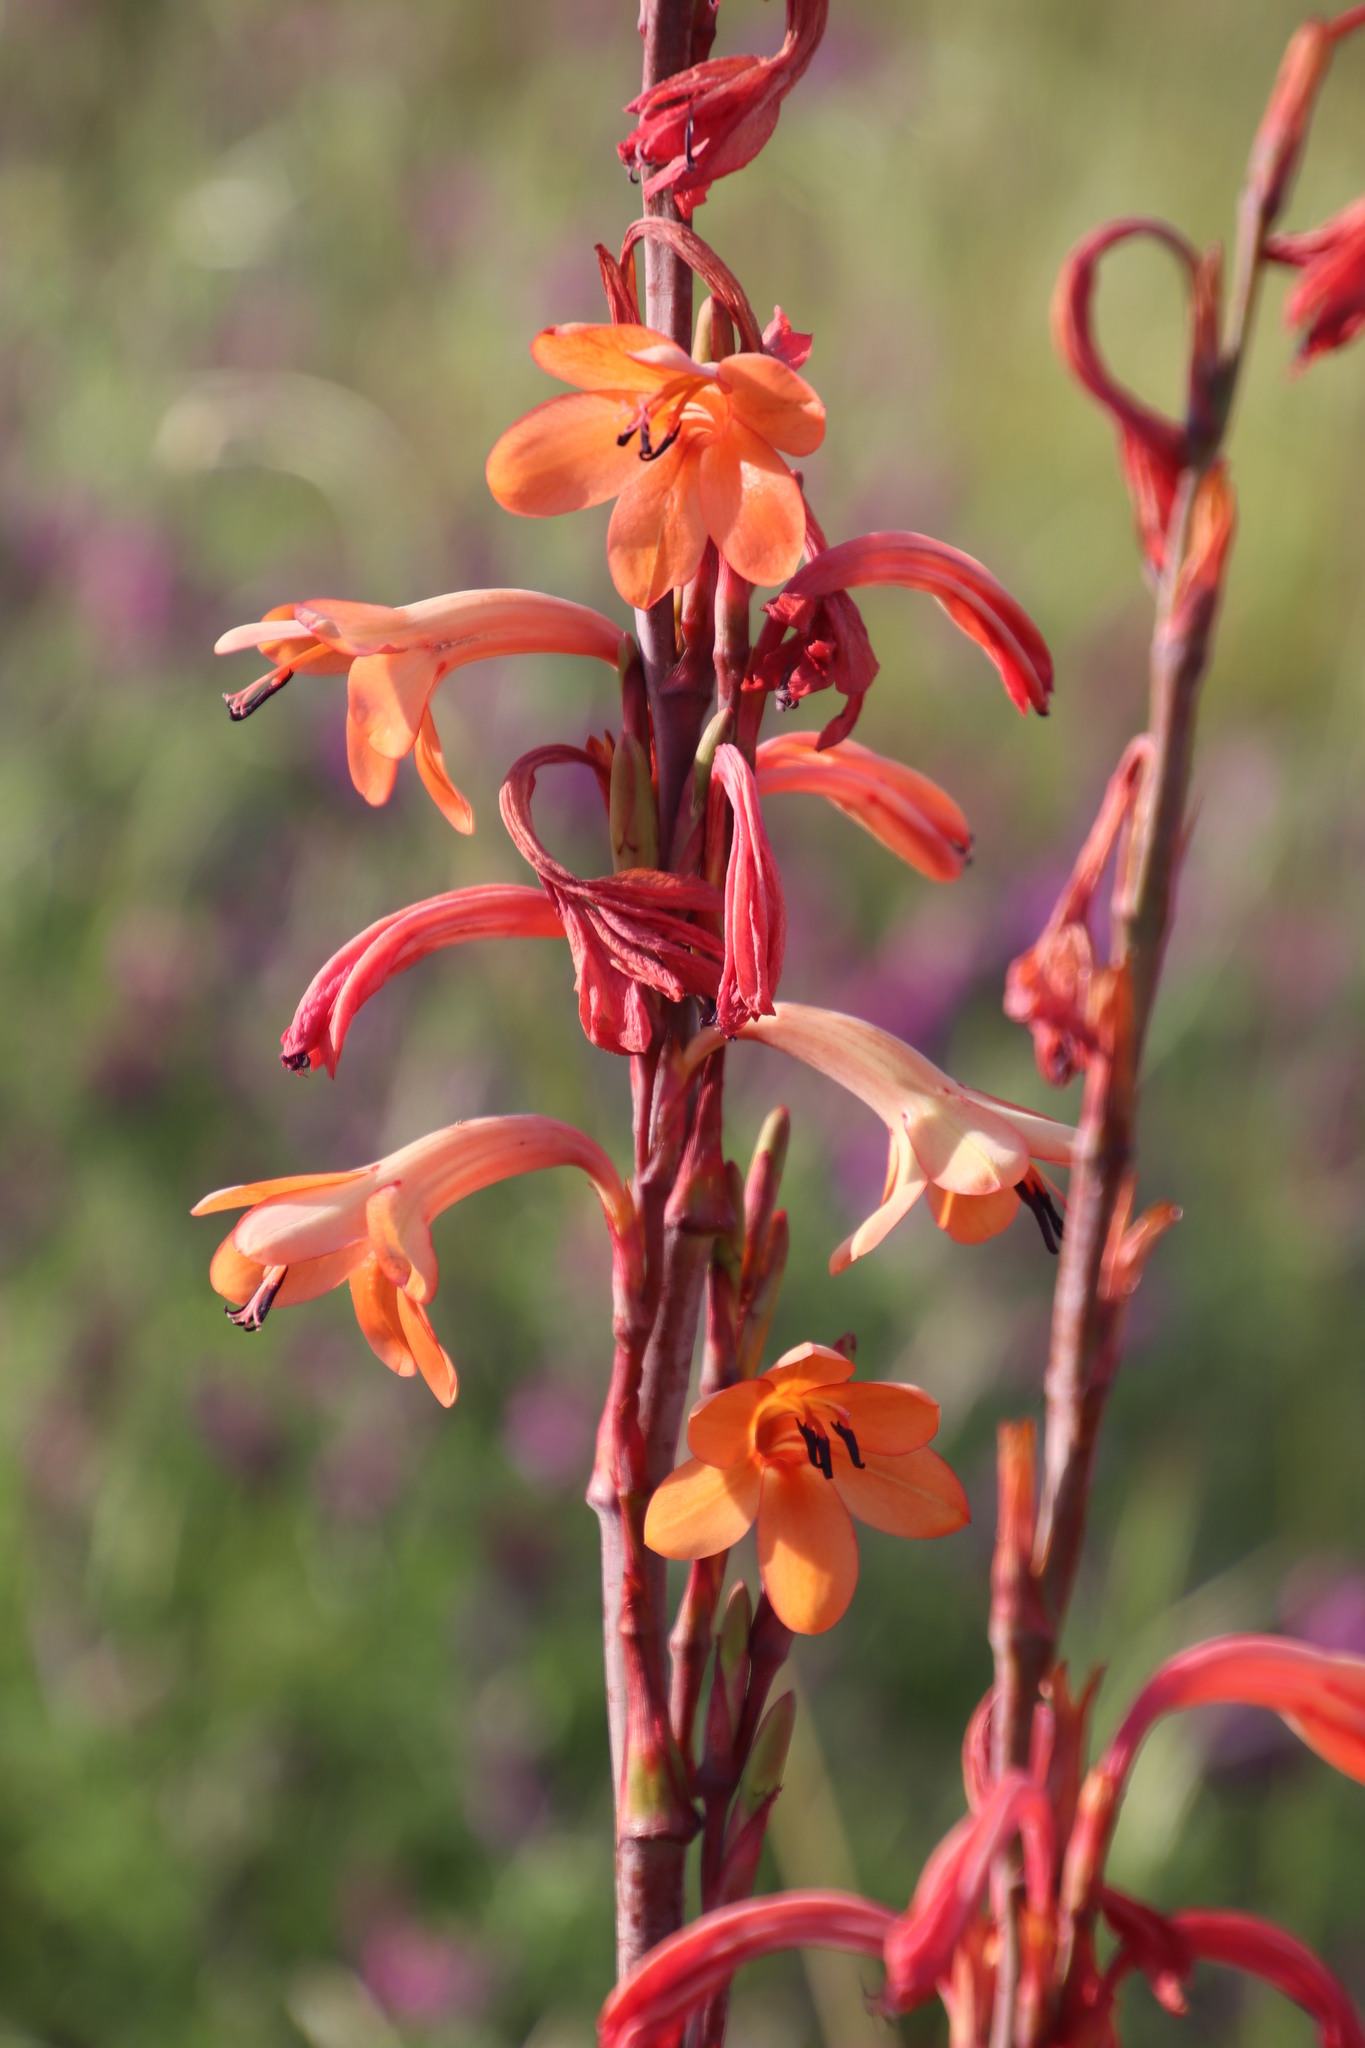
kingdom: Plantae
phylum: Tracheophyta
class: Liliopsida
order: Asparagales
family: Iridaceae
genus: Watsonia
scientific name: Watsonia meriana
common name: Bulbil bugle-lily
